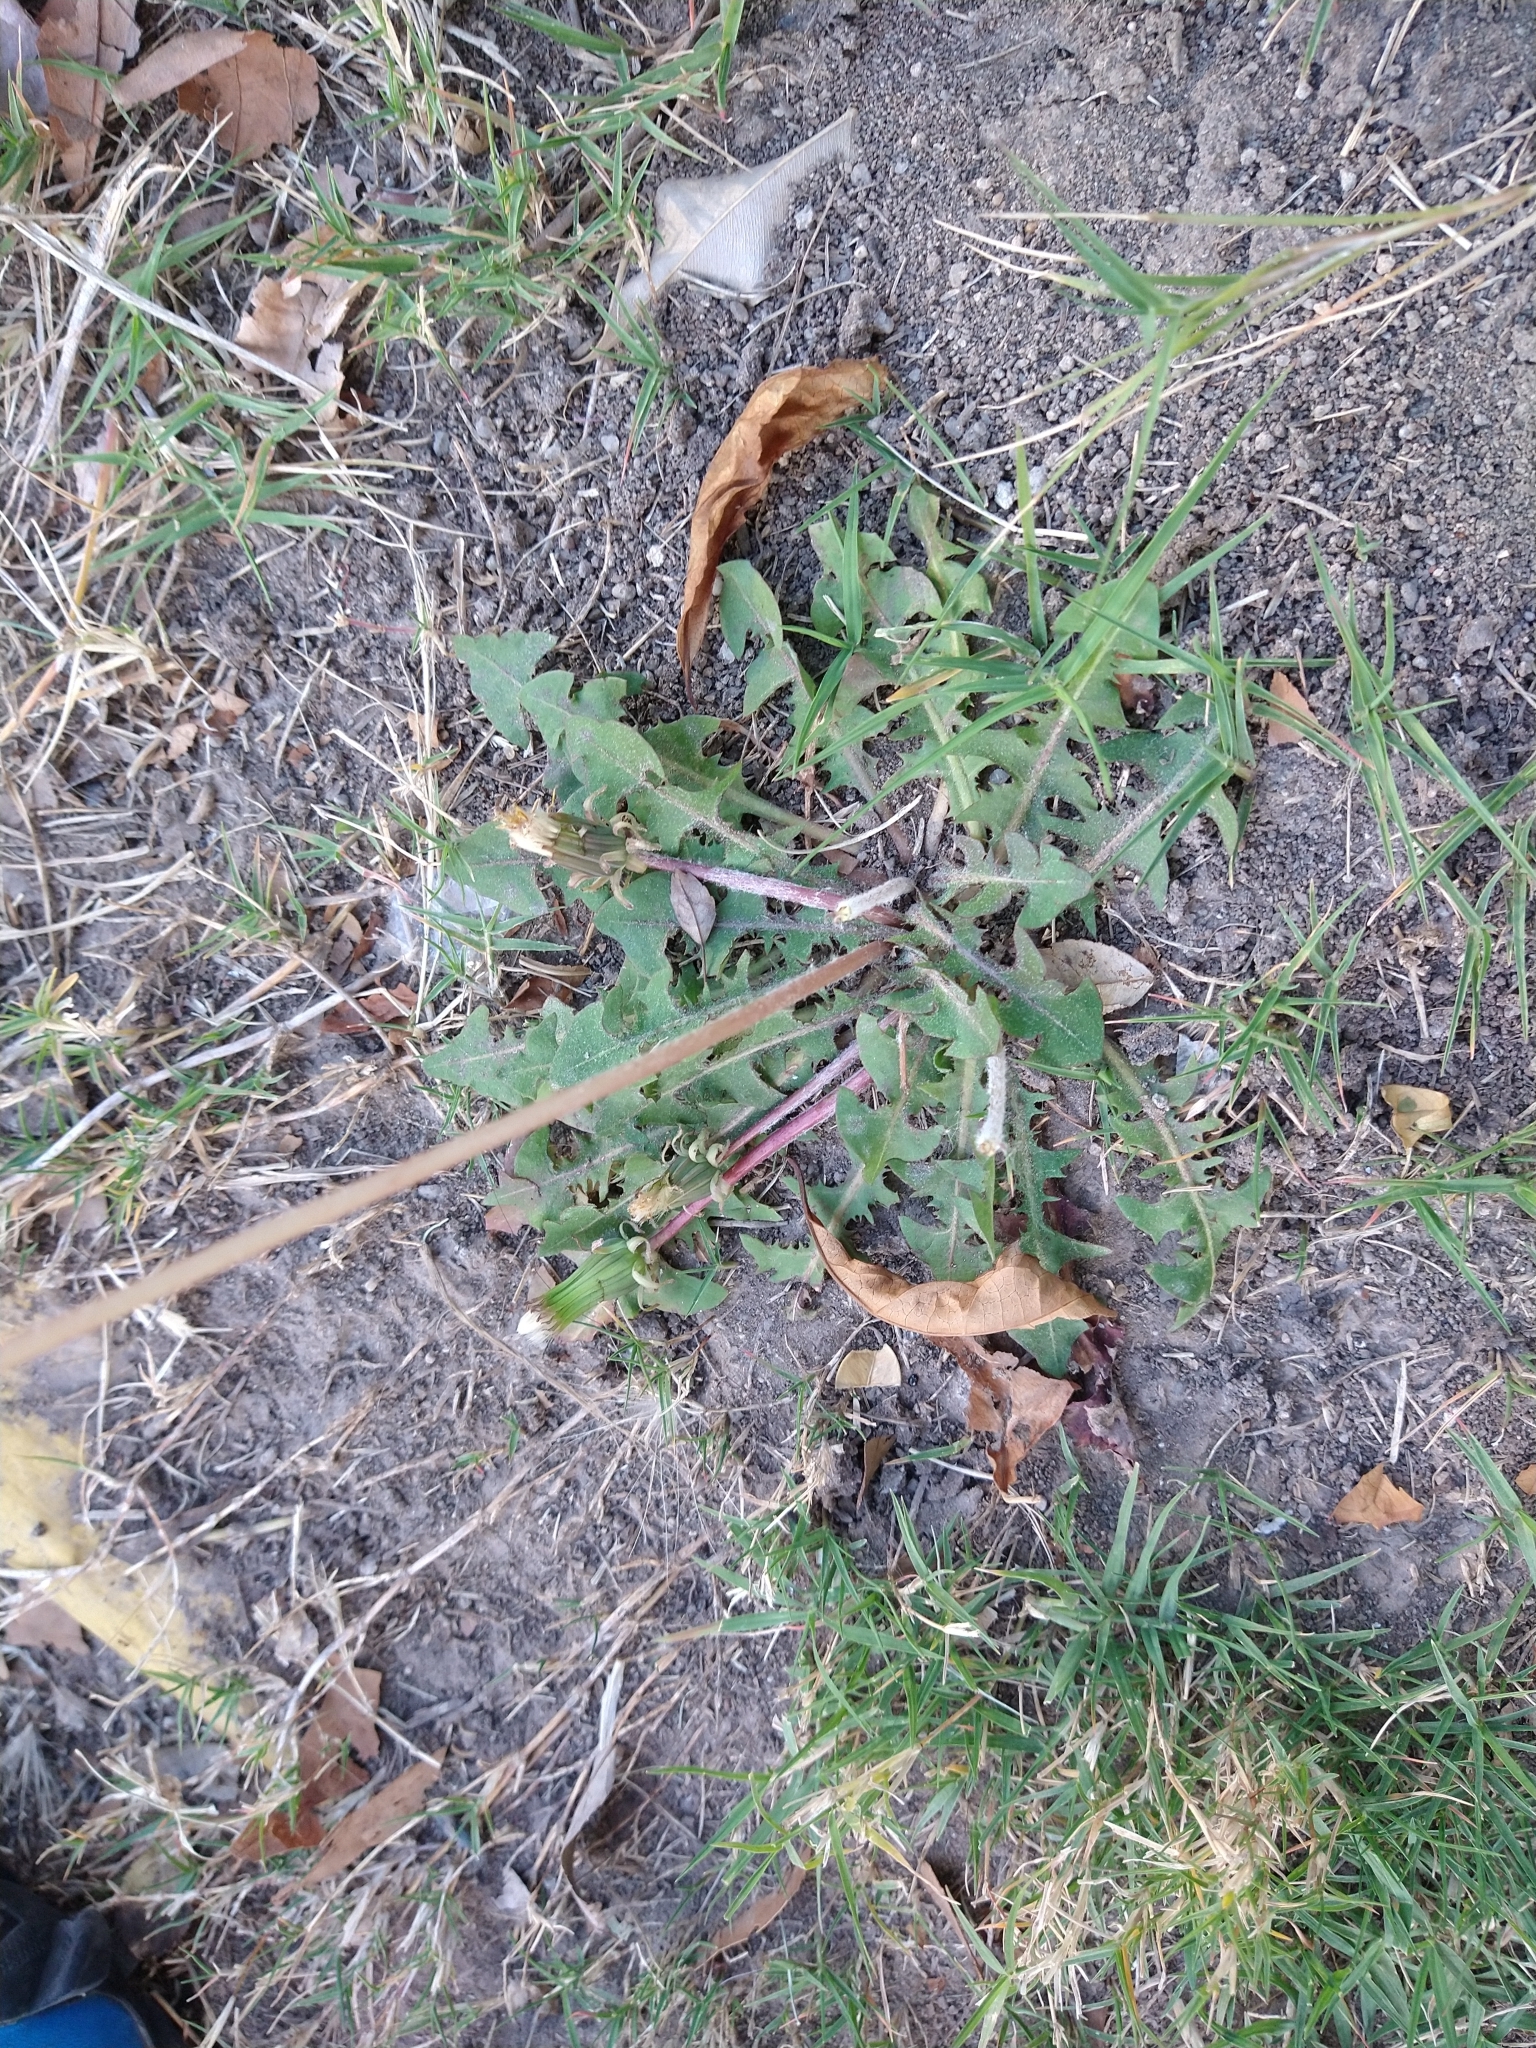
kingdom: Plantae
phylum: Tracheophyta
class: Magnoliopsida
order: Asterales
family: Asteraceae
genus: Taraxacum
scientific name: Taraxacum officinale
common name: Common dandelion
